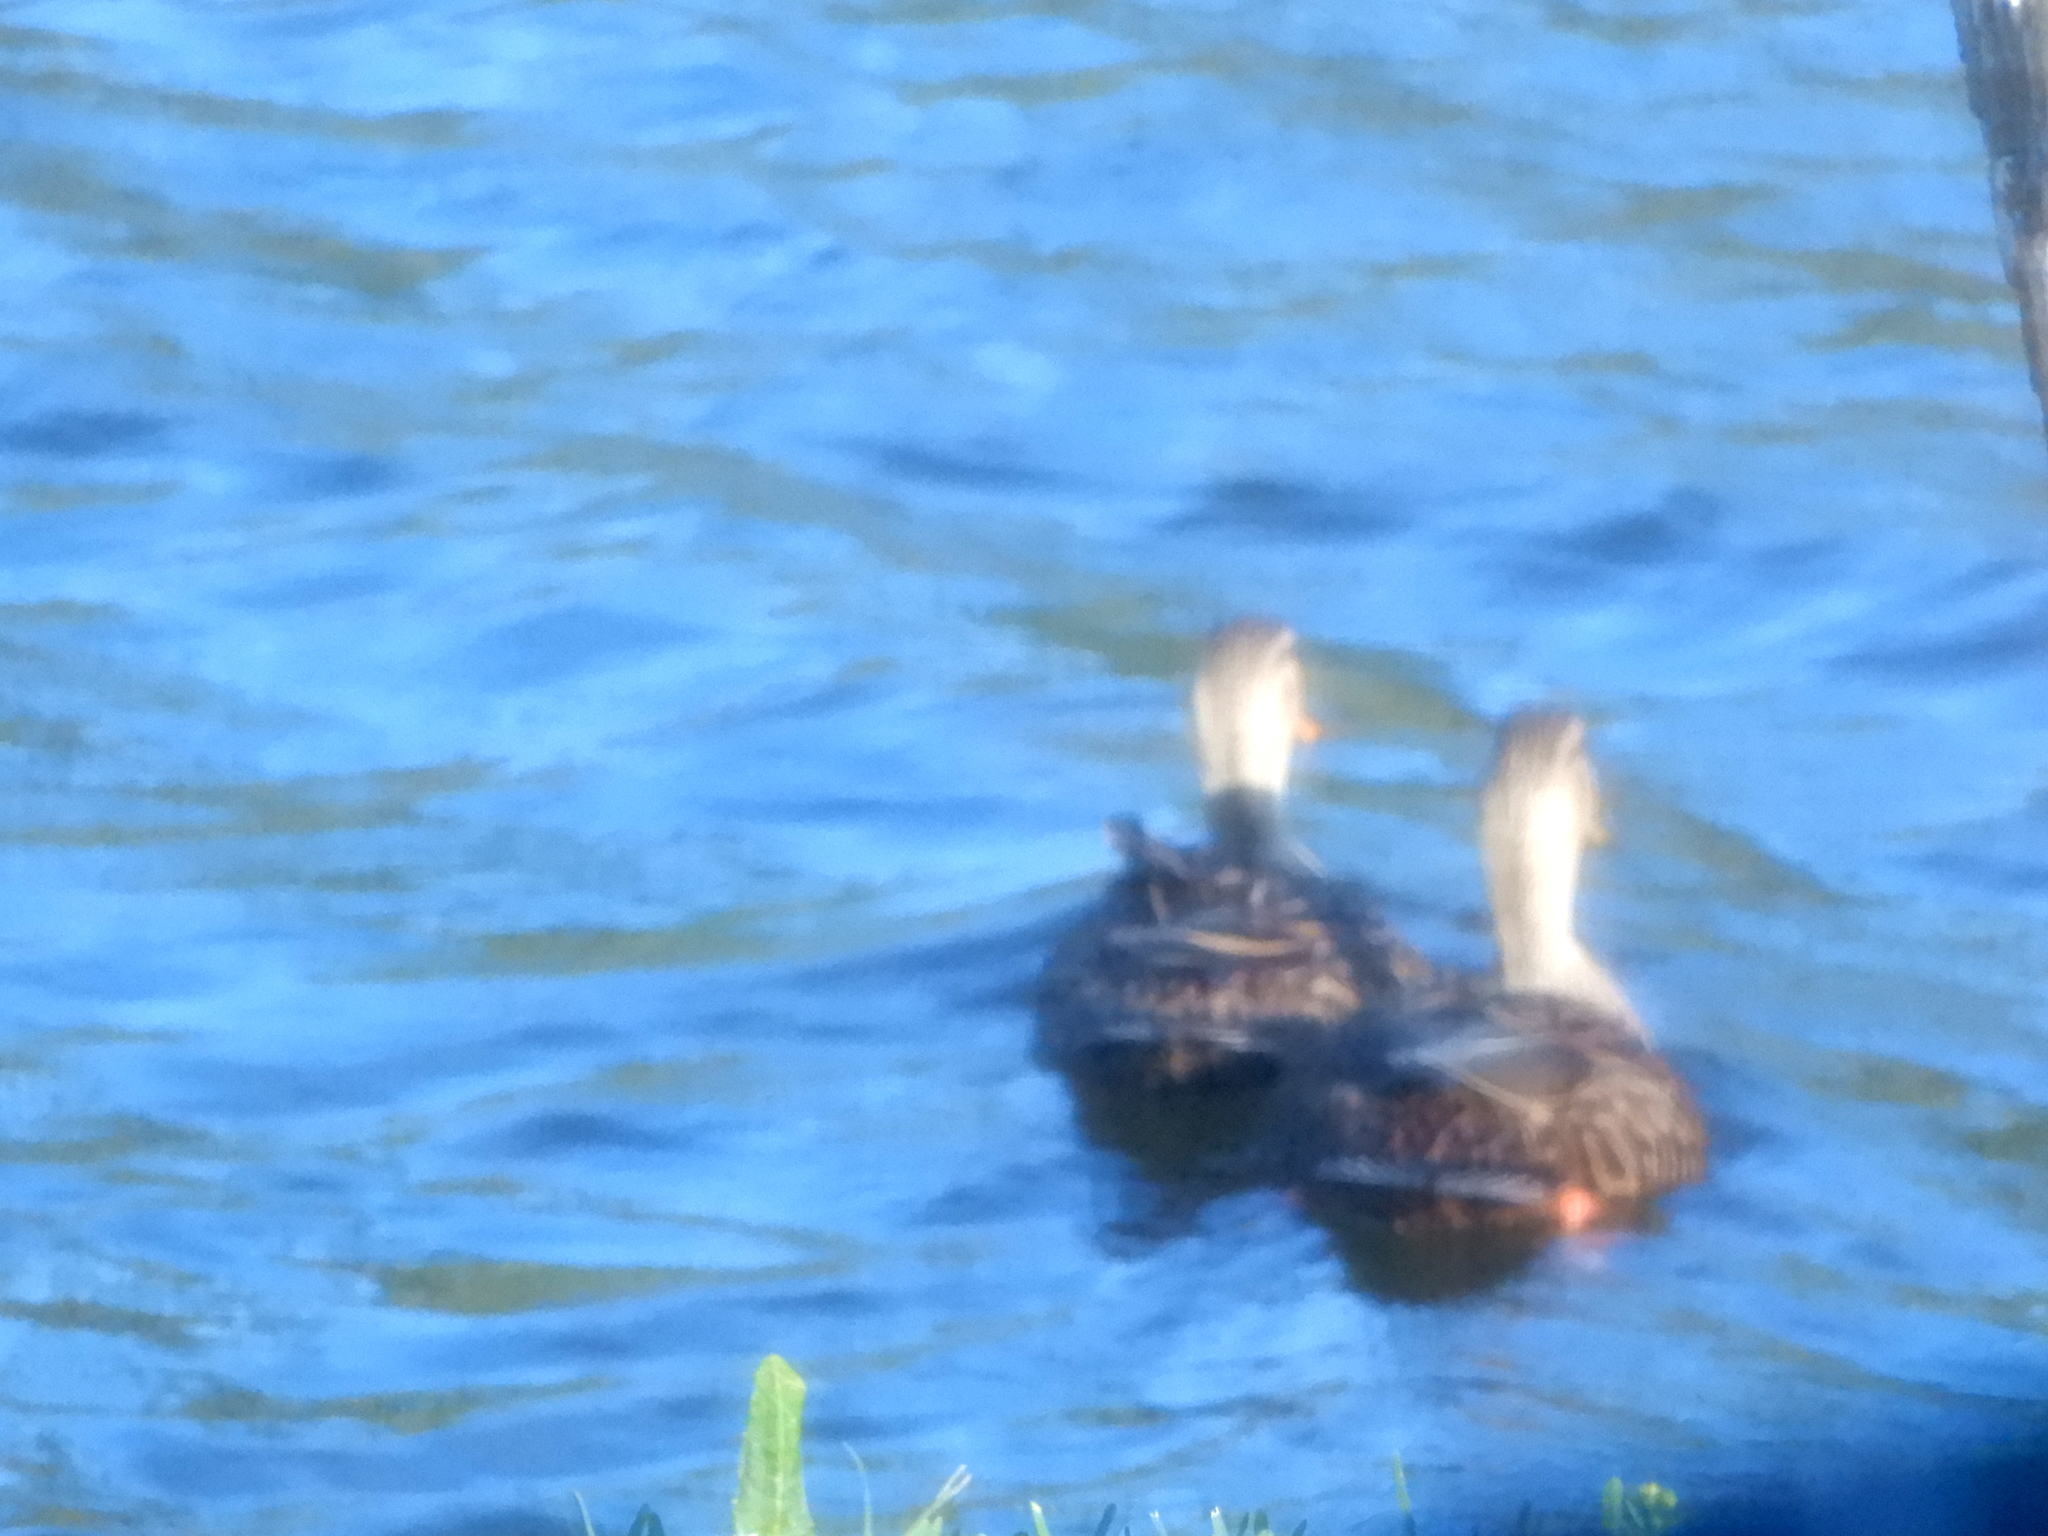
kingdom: Animalia
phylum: Chordata
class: Aves
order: Anseriformes
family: Anatidae
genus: Anas
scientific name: Anas
